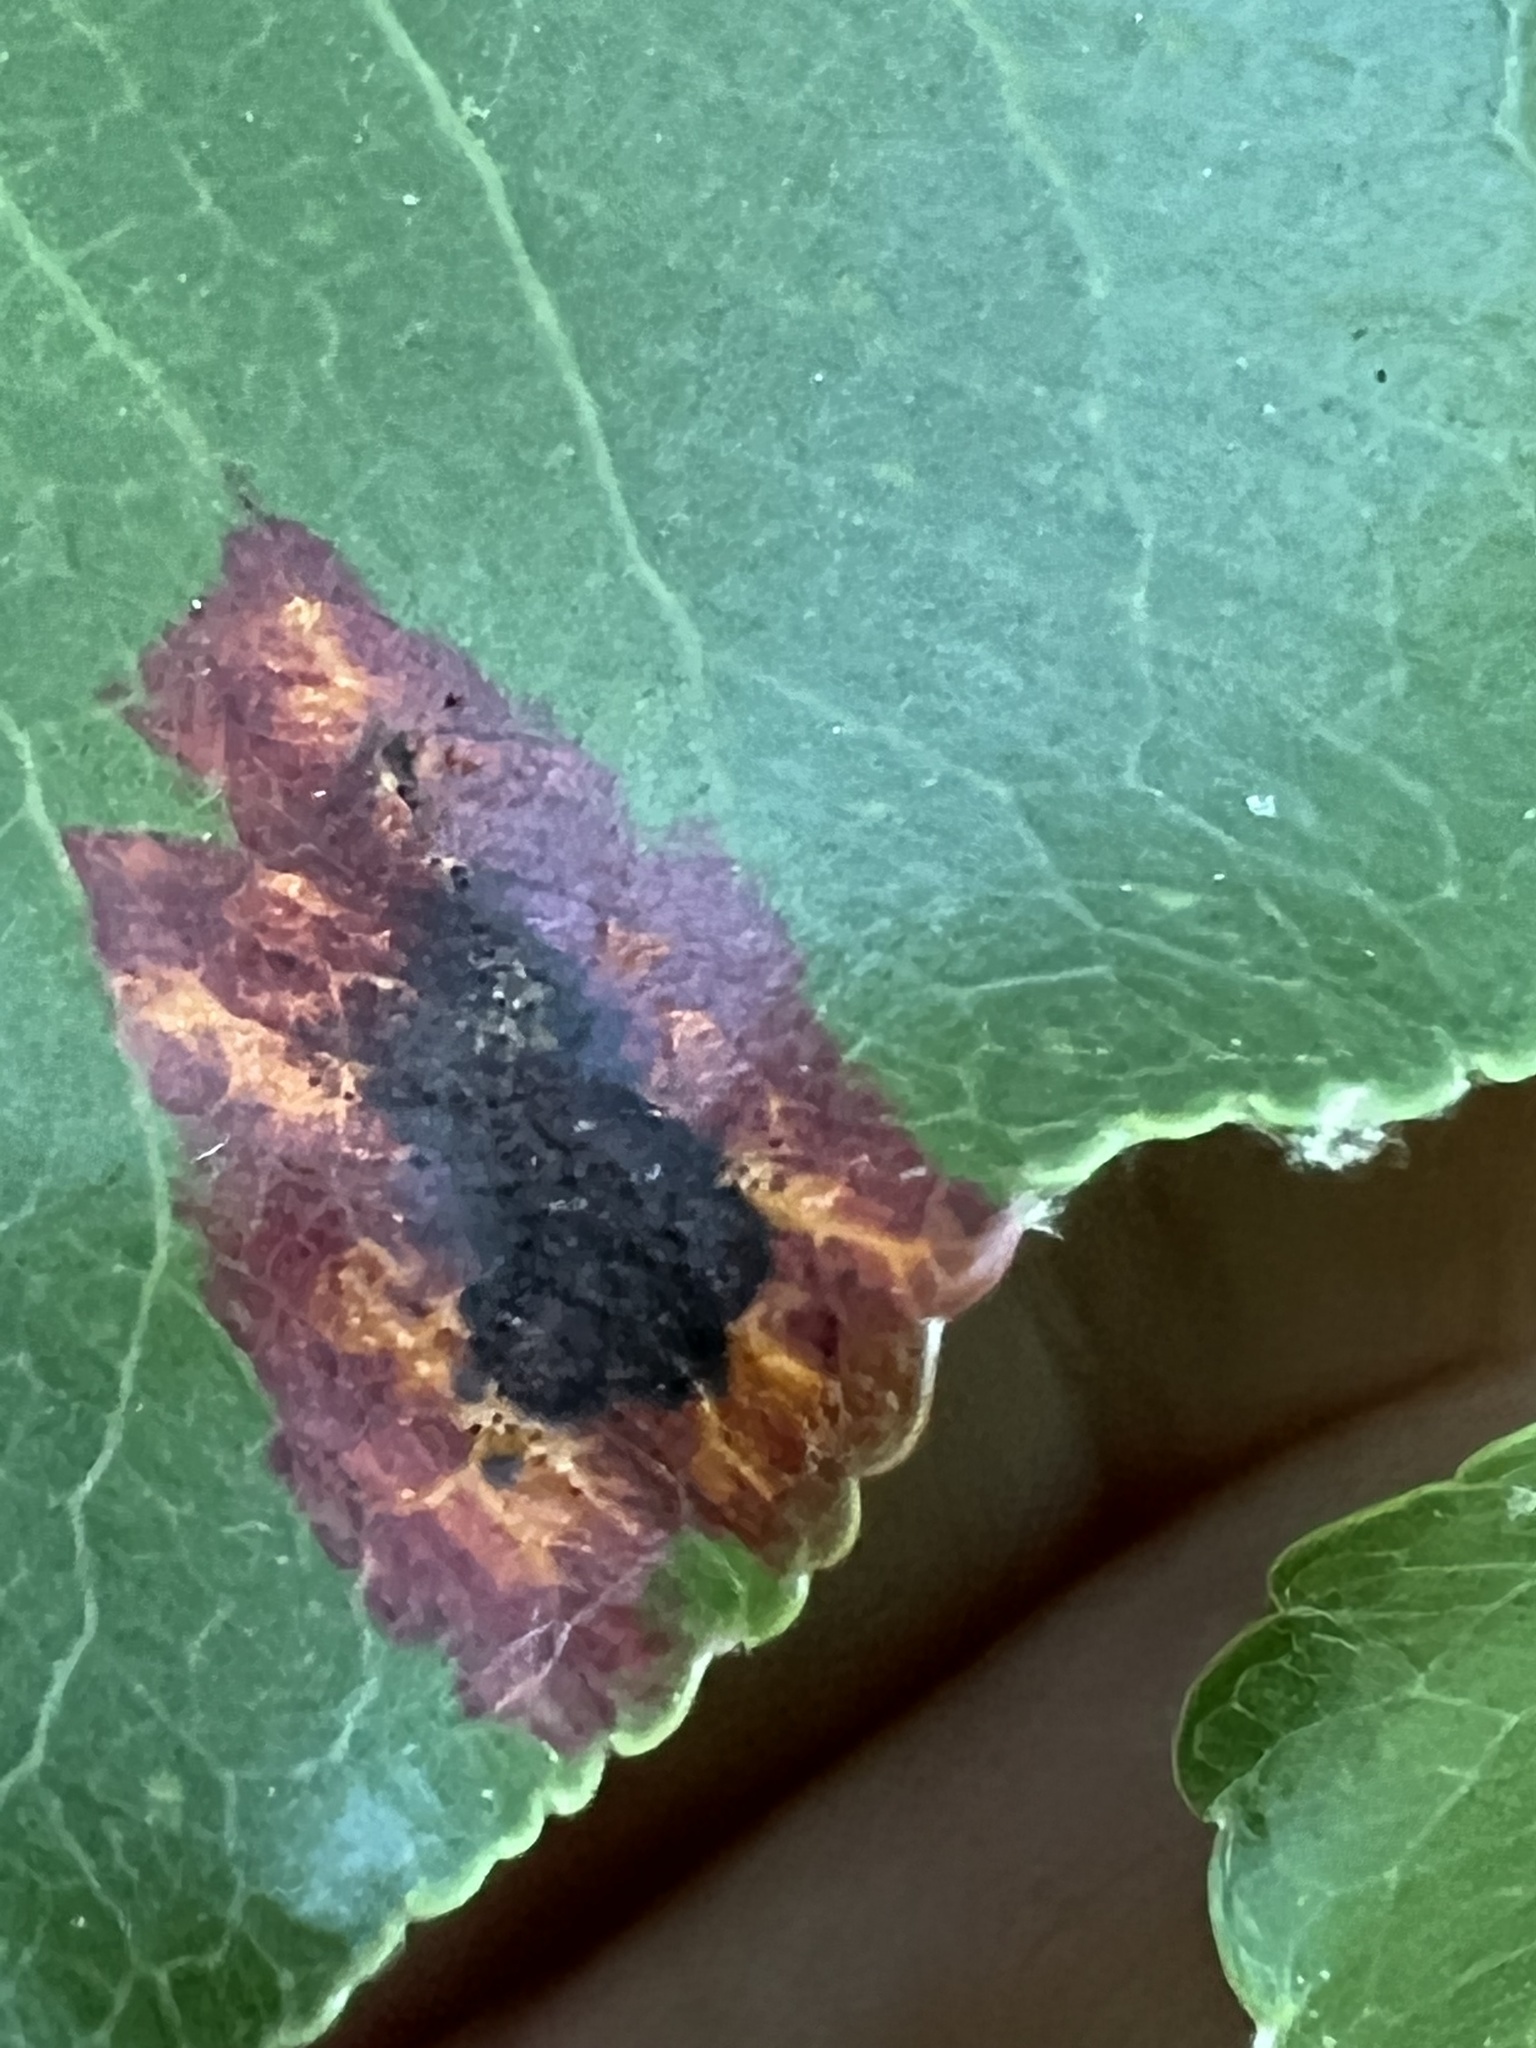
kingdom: Fungi
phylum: Basidiomycota
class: Pucciniomycetes
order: Pucciniales
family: Gymnosporangiaceae
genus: Gymnosporangium
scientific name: Gymnosporangium sabinae
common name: Pear trellis rust fungus
